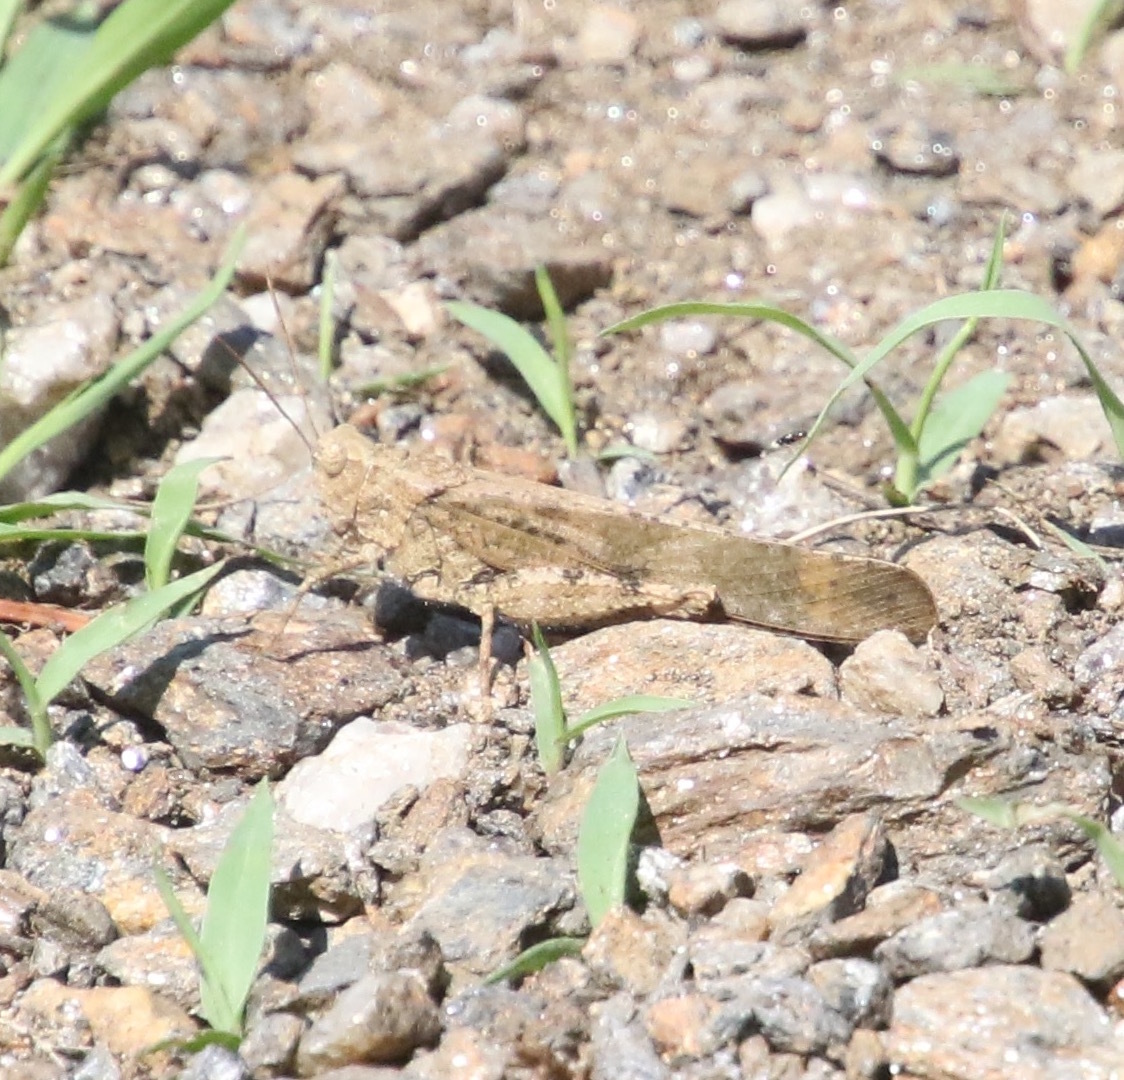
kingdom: Animalia
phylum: Arthropoda
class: Insecta
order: Orthoptera
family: Acrididae
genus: Dissosteira
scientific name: Dissosteira carolina
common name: Carolina grasshopper
